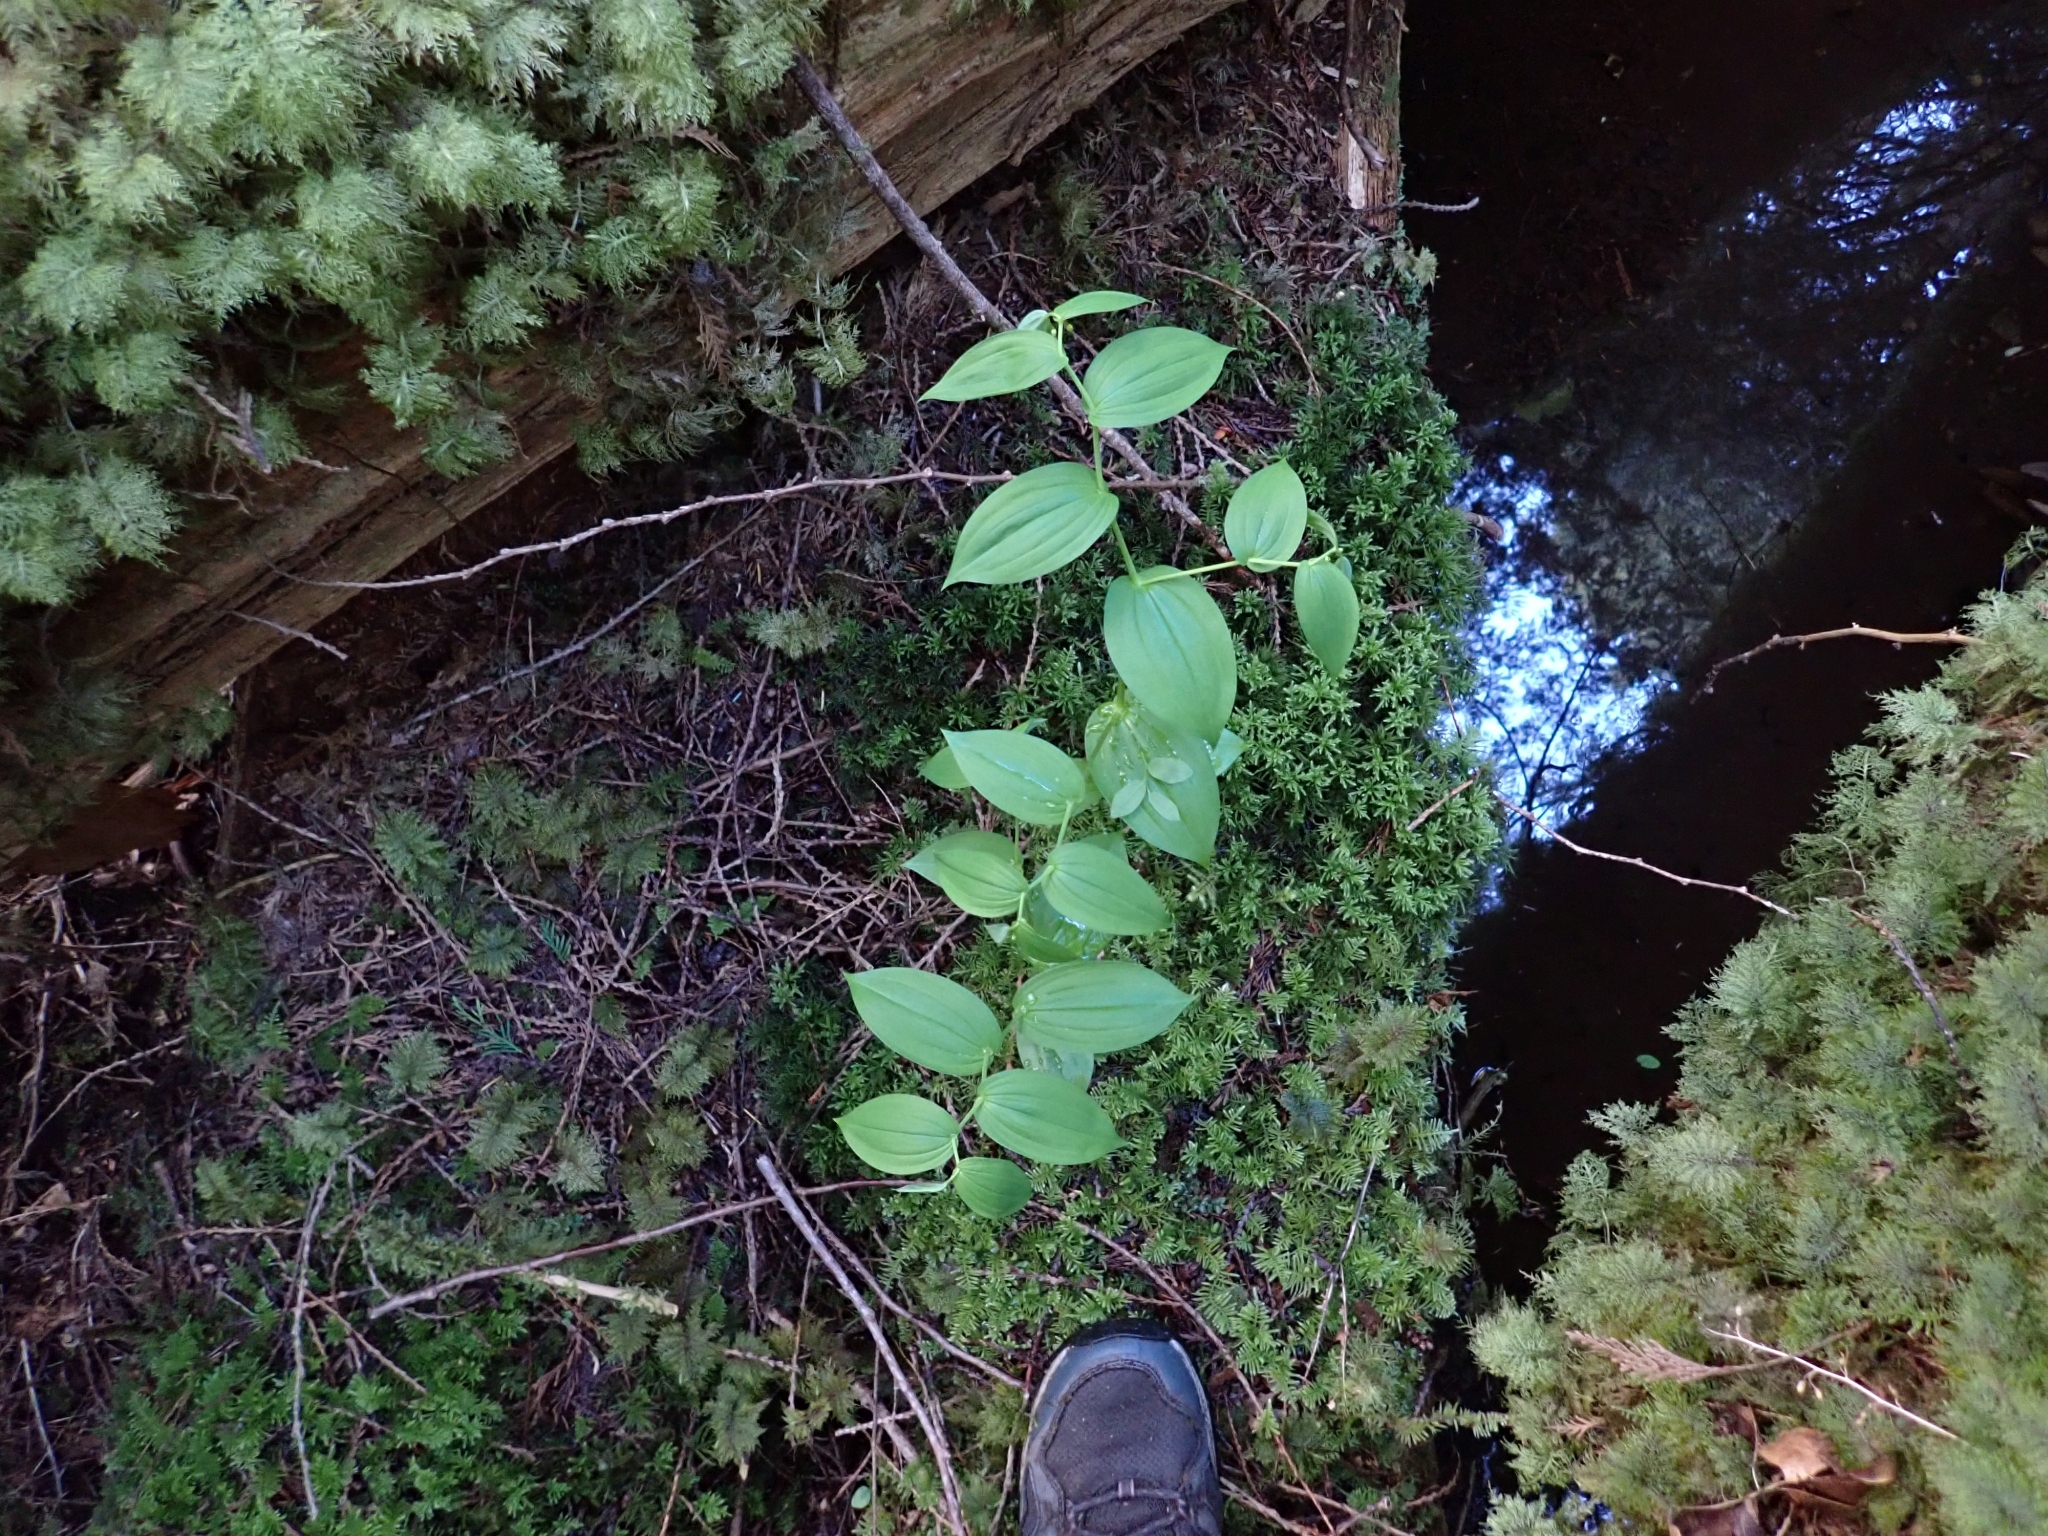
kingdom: Plantae
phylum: Tracheophyta
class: Liliopsida
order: Liliales
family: Liliaceae
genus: Streptopus
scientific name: Streptopus amplexifolius
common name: Clasp twisted stalk
